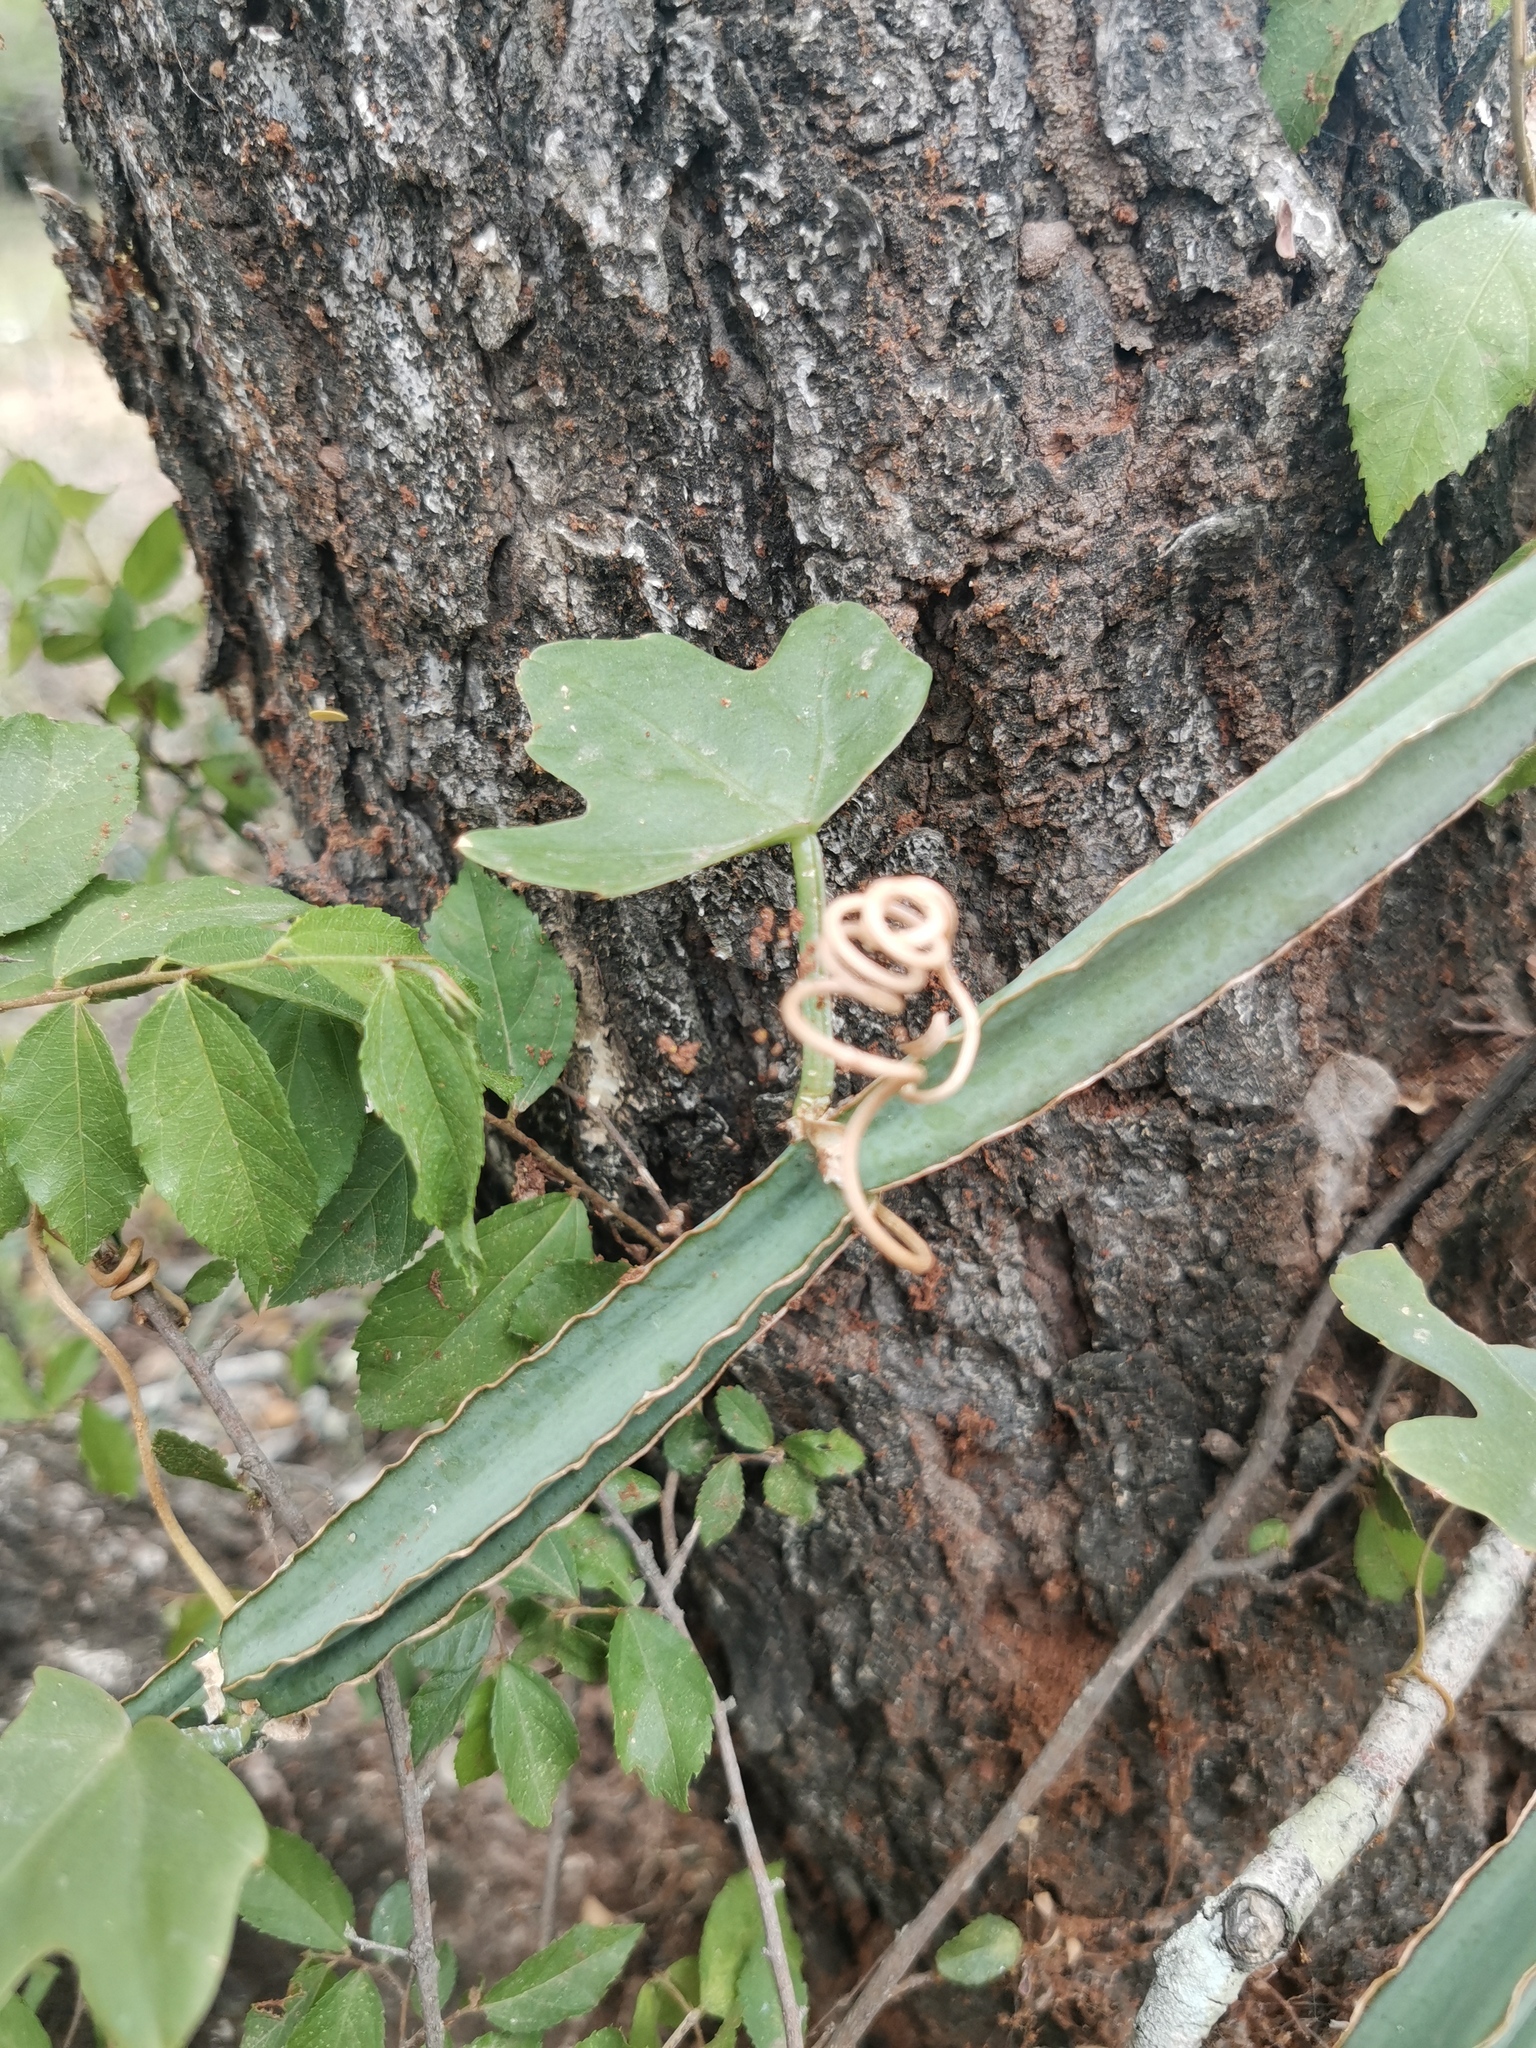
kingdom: Plantae
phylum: Tracheophyta
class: Magnoliopsida
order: Vitales
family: Vitaceae
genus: Cissus
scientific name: Cissus quadrangularis
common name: Veldt-grape
